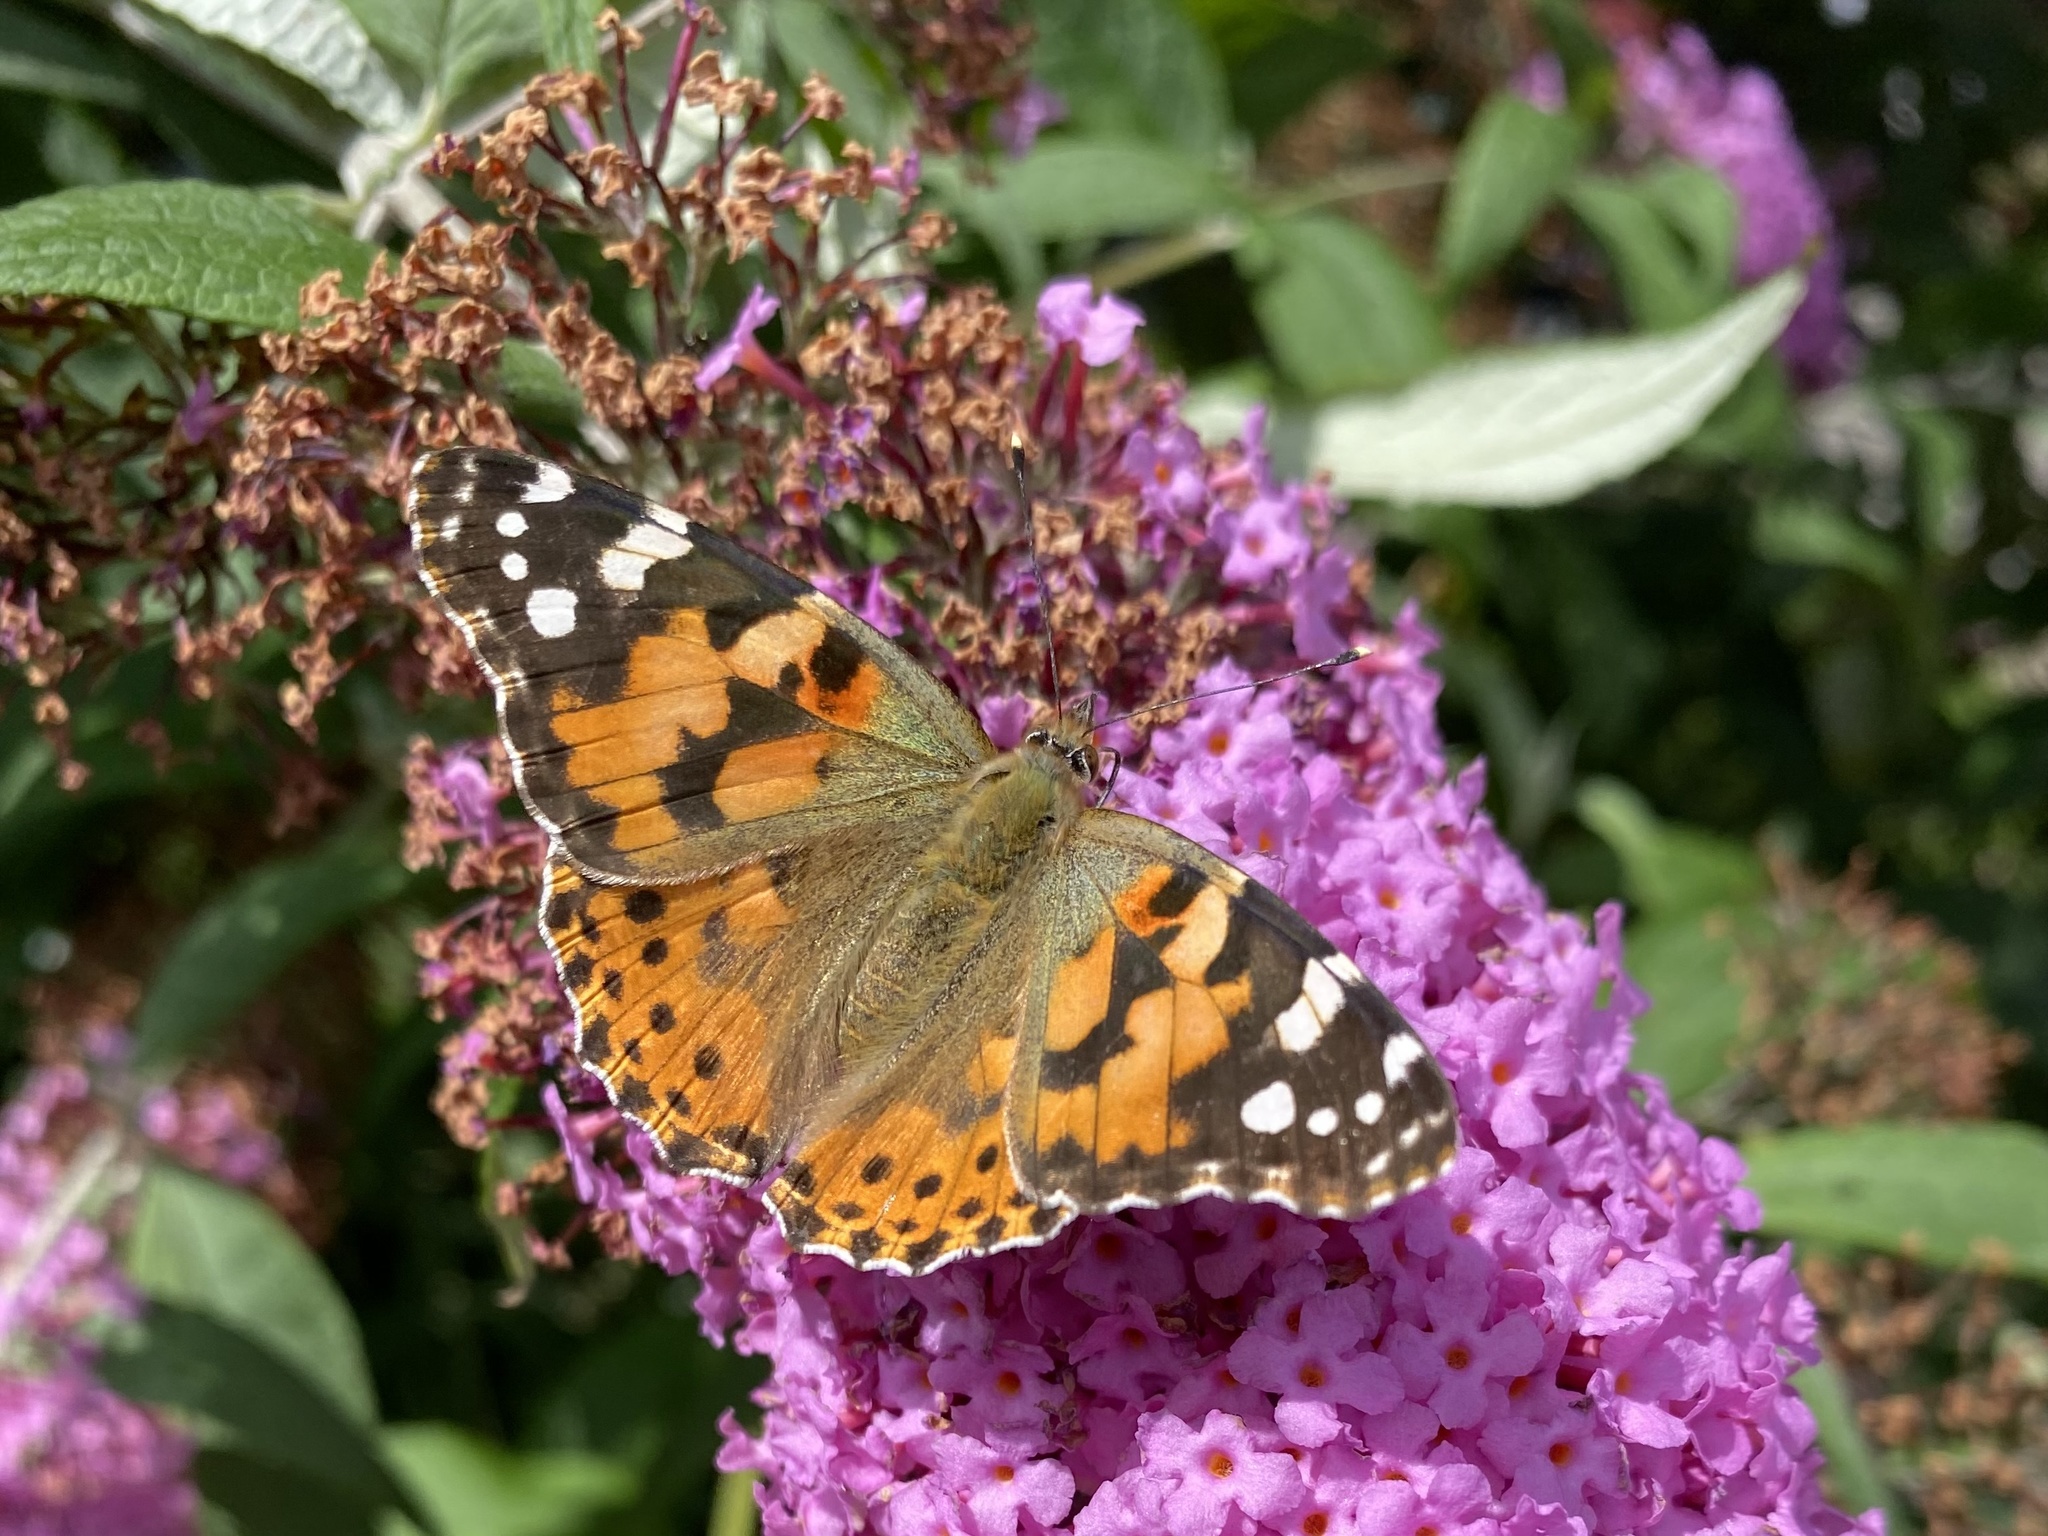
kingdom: Animalia
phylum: Arthropoda
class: Insecta
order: Lepidoptera
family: Nymphalidae
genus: Vanessa
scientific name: Vanessa cardui
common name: Painted lady
